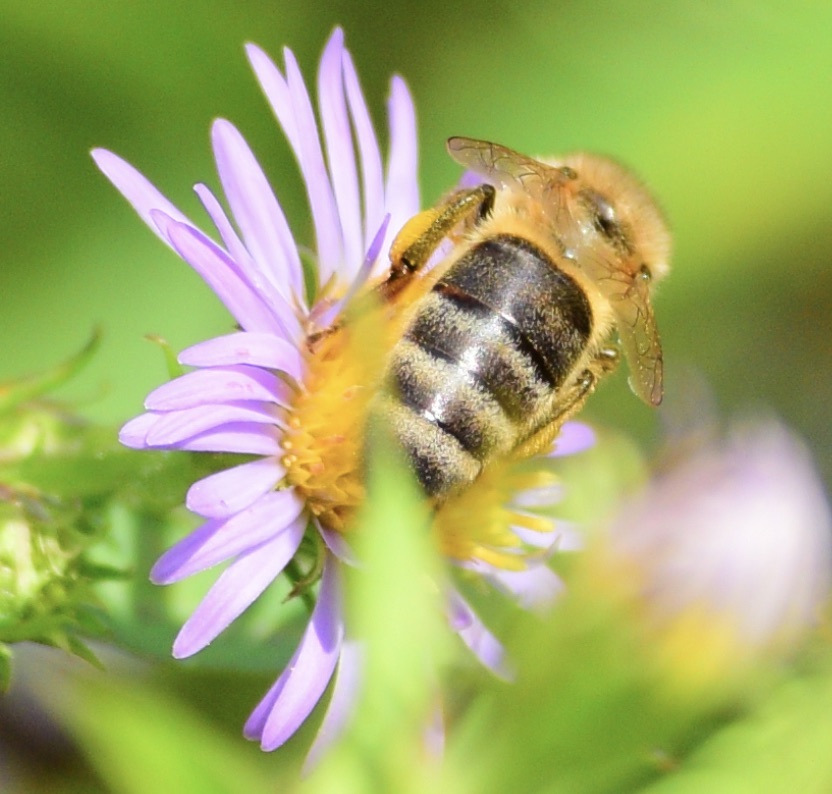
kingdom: Animalia
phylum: Arthropoda
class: Insecta
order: Hymenoptera
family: Apidae
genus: Apis
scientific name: Apis mellifera
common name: Honey bee
